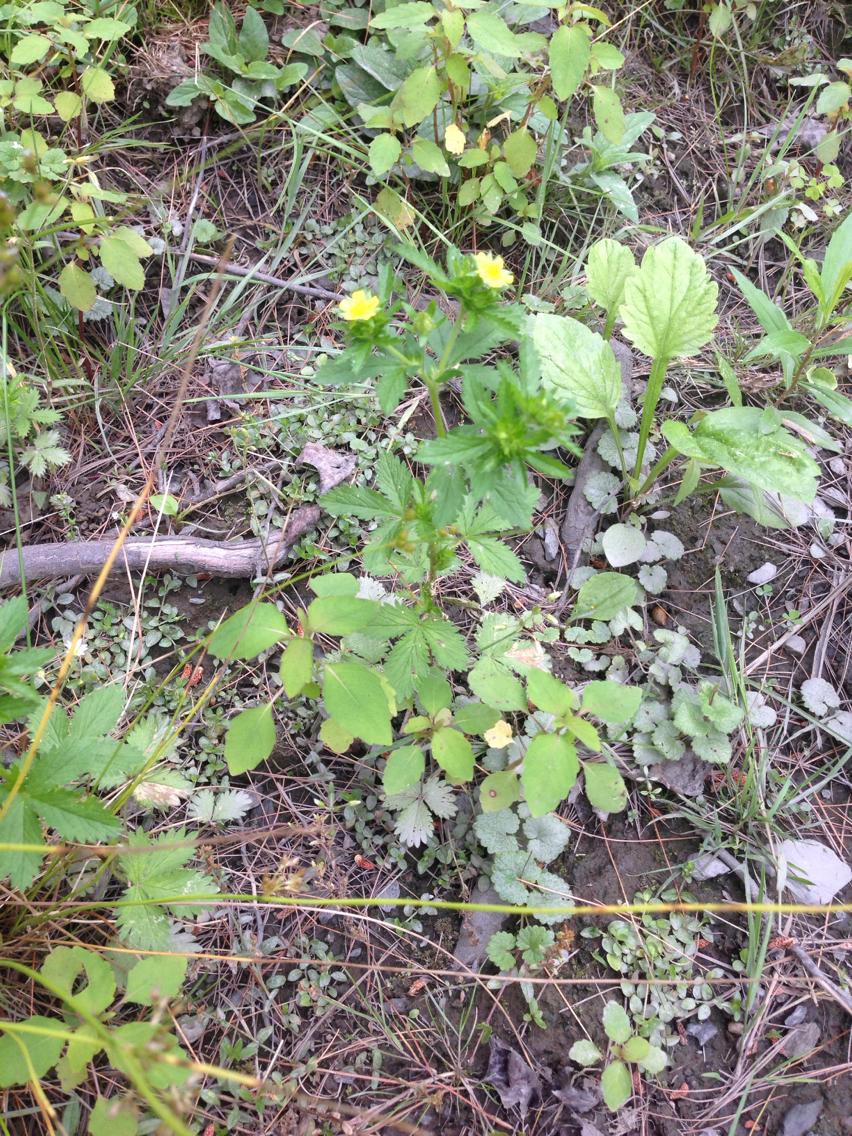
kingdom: Plantae
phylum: Tracheophyta
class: Magnoliopsida
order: Rosales
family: Rosaceae
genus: Potentilla
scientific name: Potentilla norvegica
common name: Ternate-leaved cinquefoil
